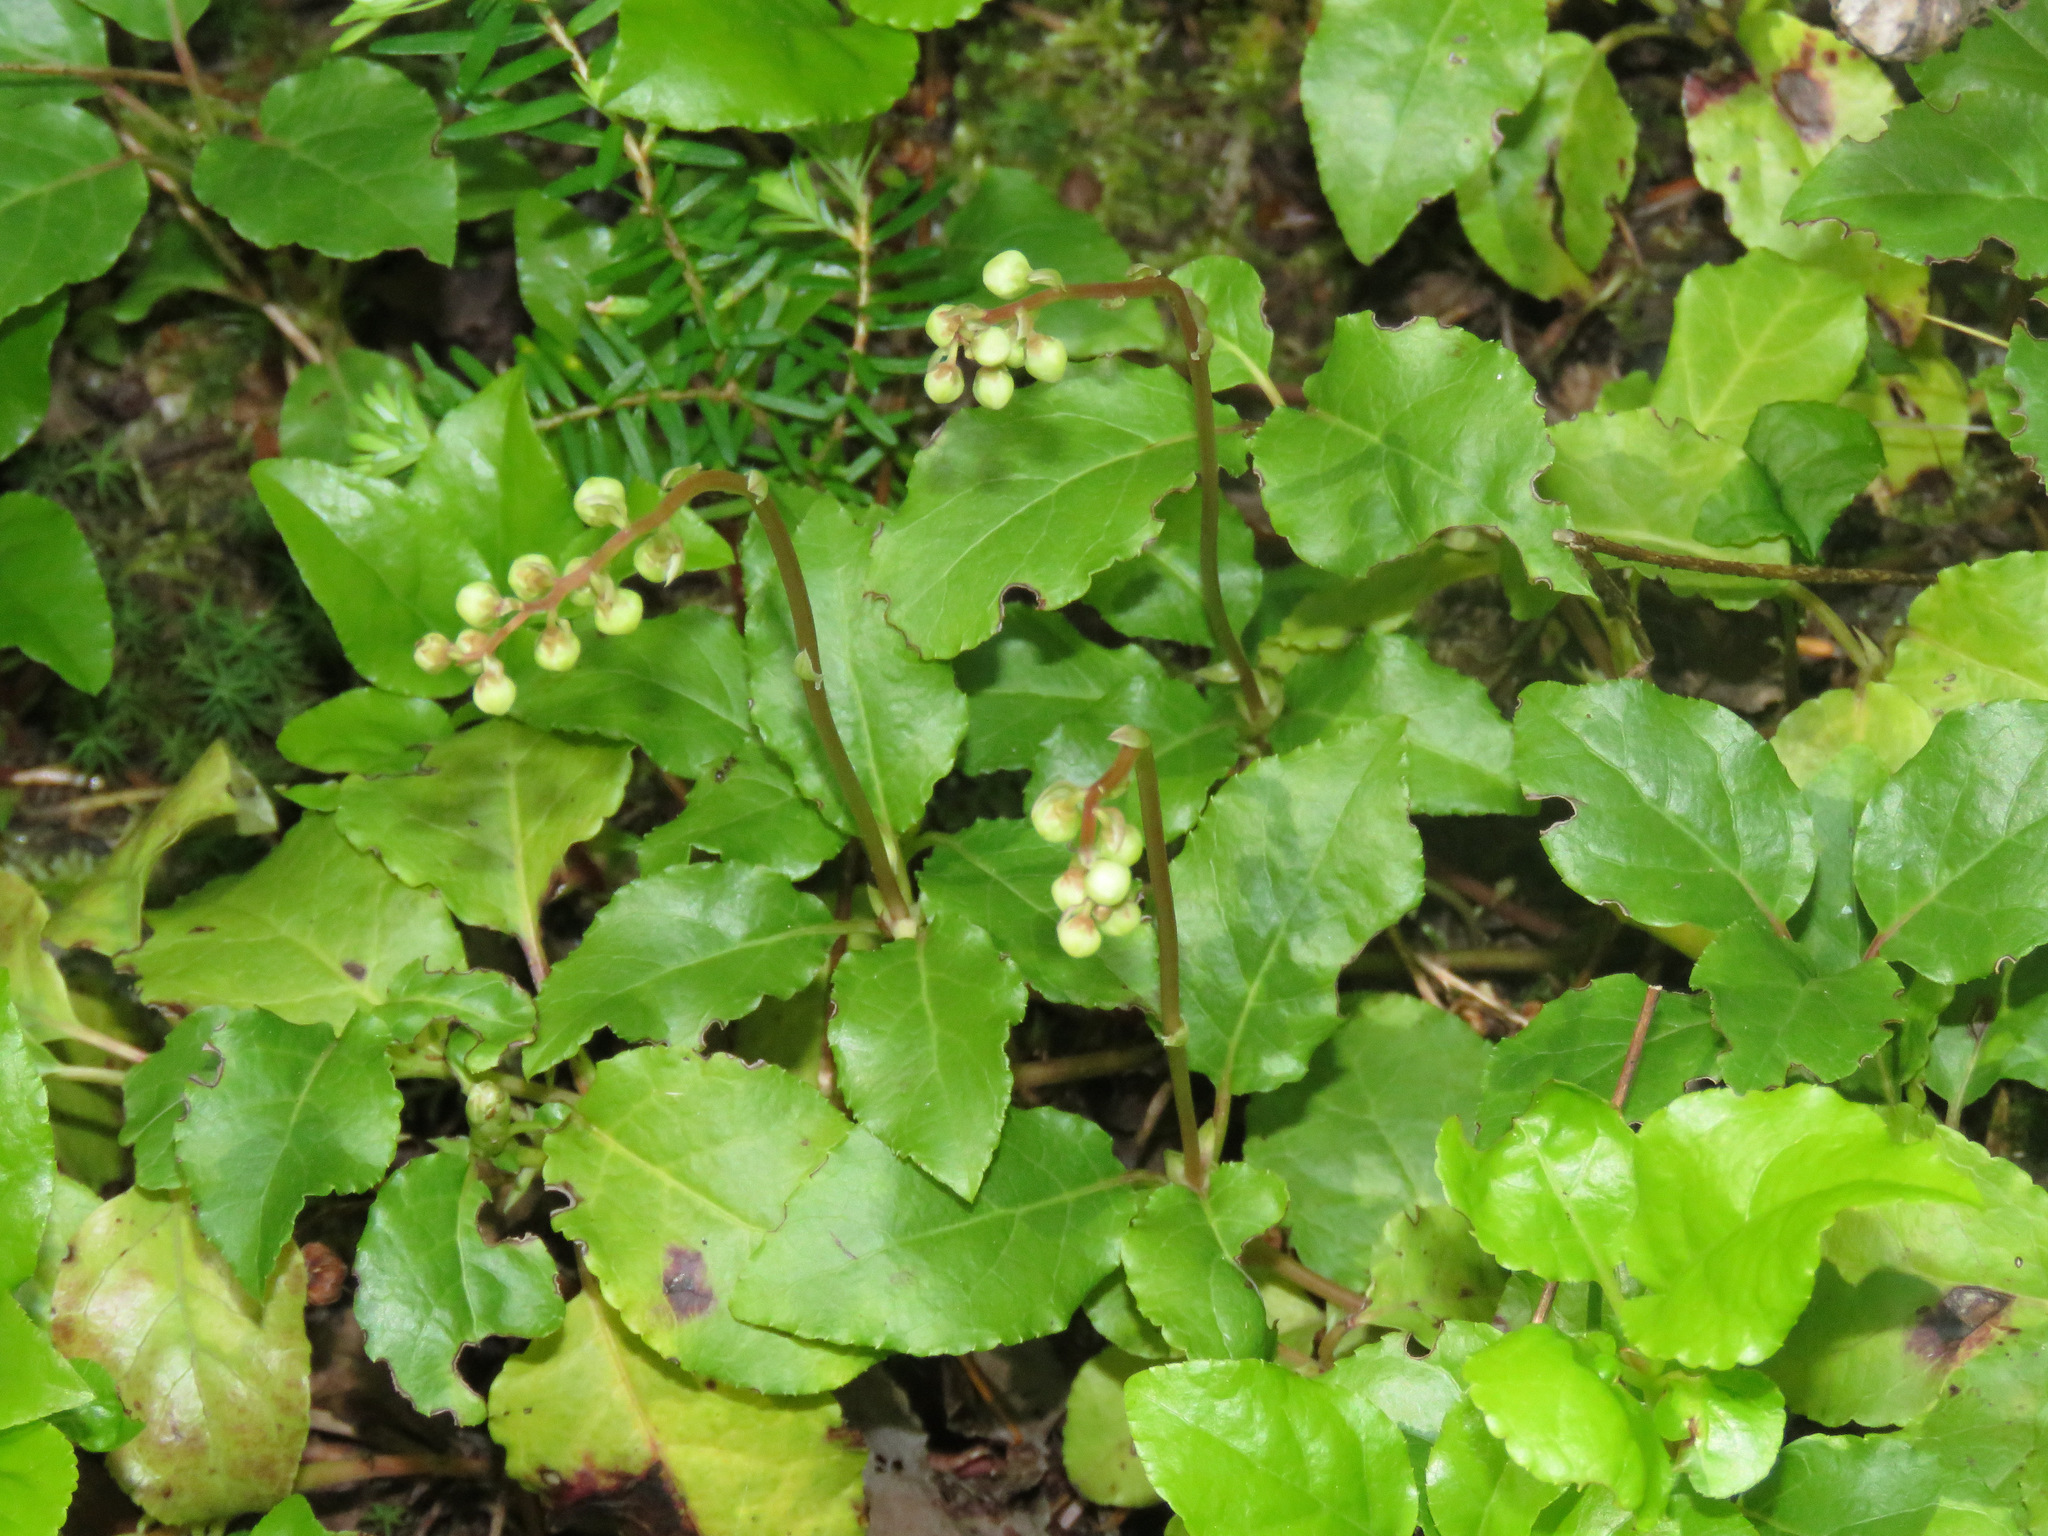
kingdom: Plantae
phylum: Tracheophyta
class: Magnoliopsida
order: Ericales
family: Ericaceae
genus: Orthilia
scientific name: Orthilia secunda
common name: One-sided orthilia
